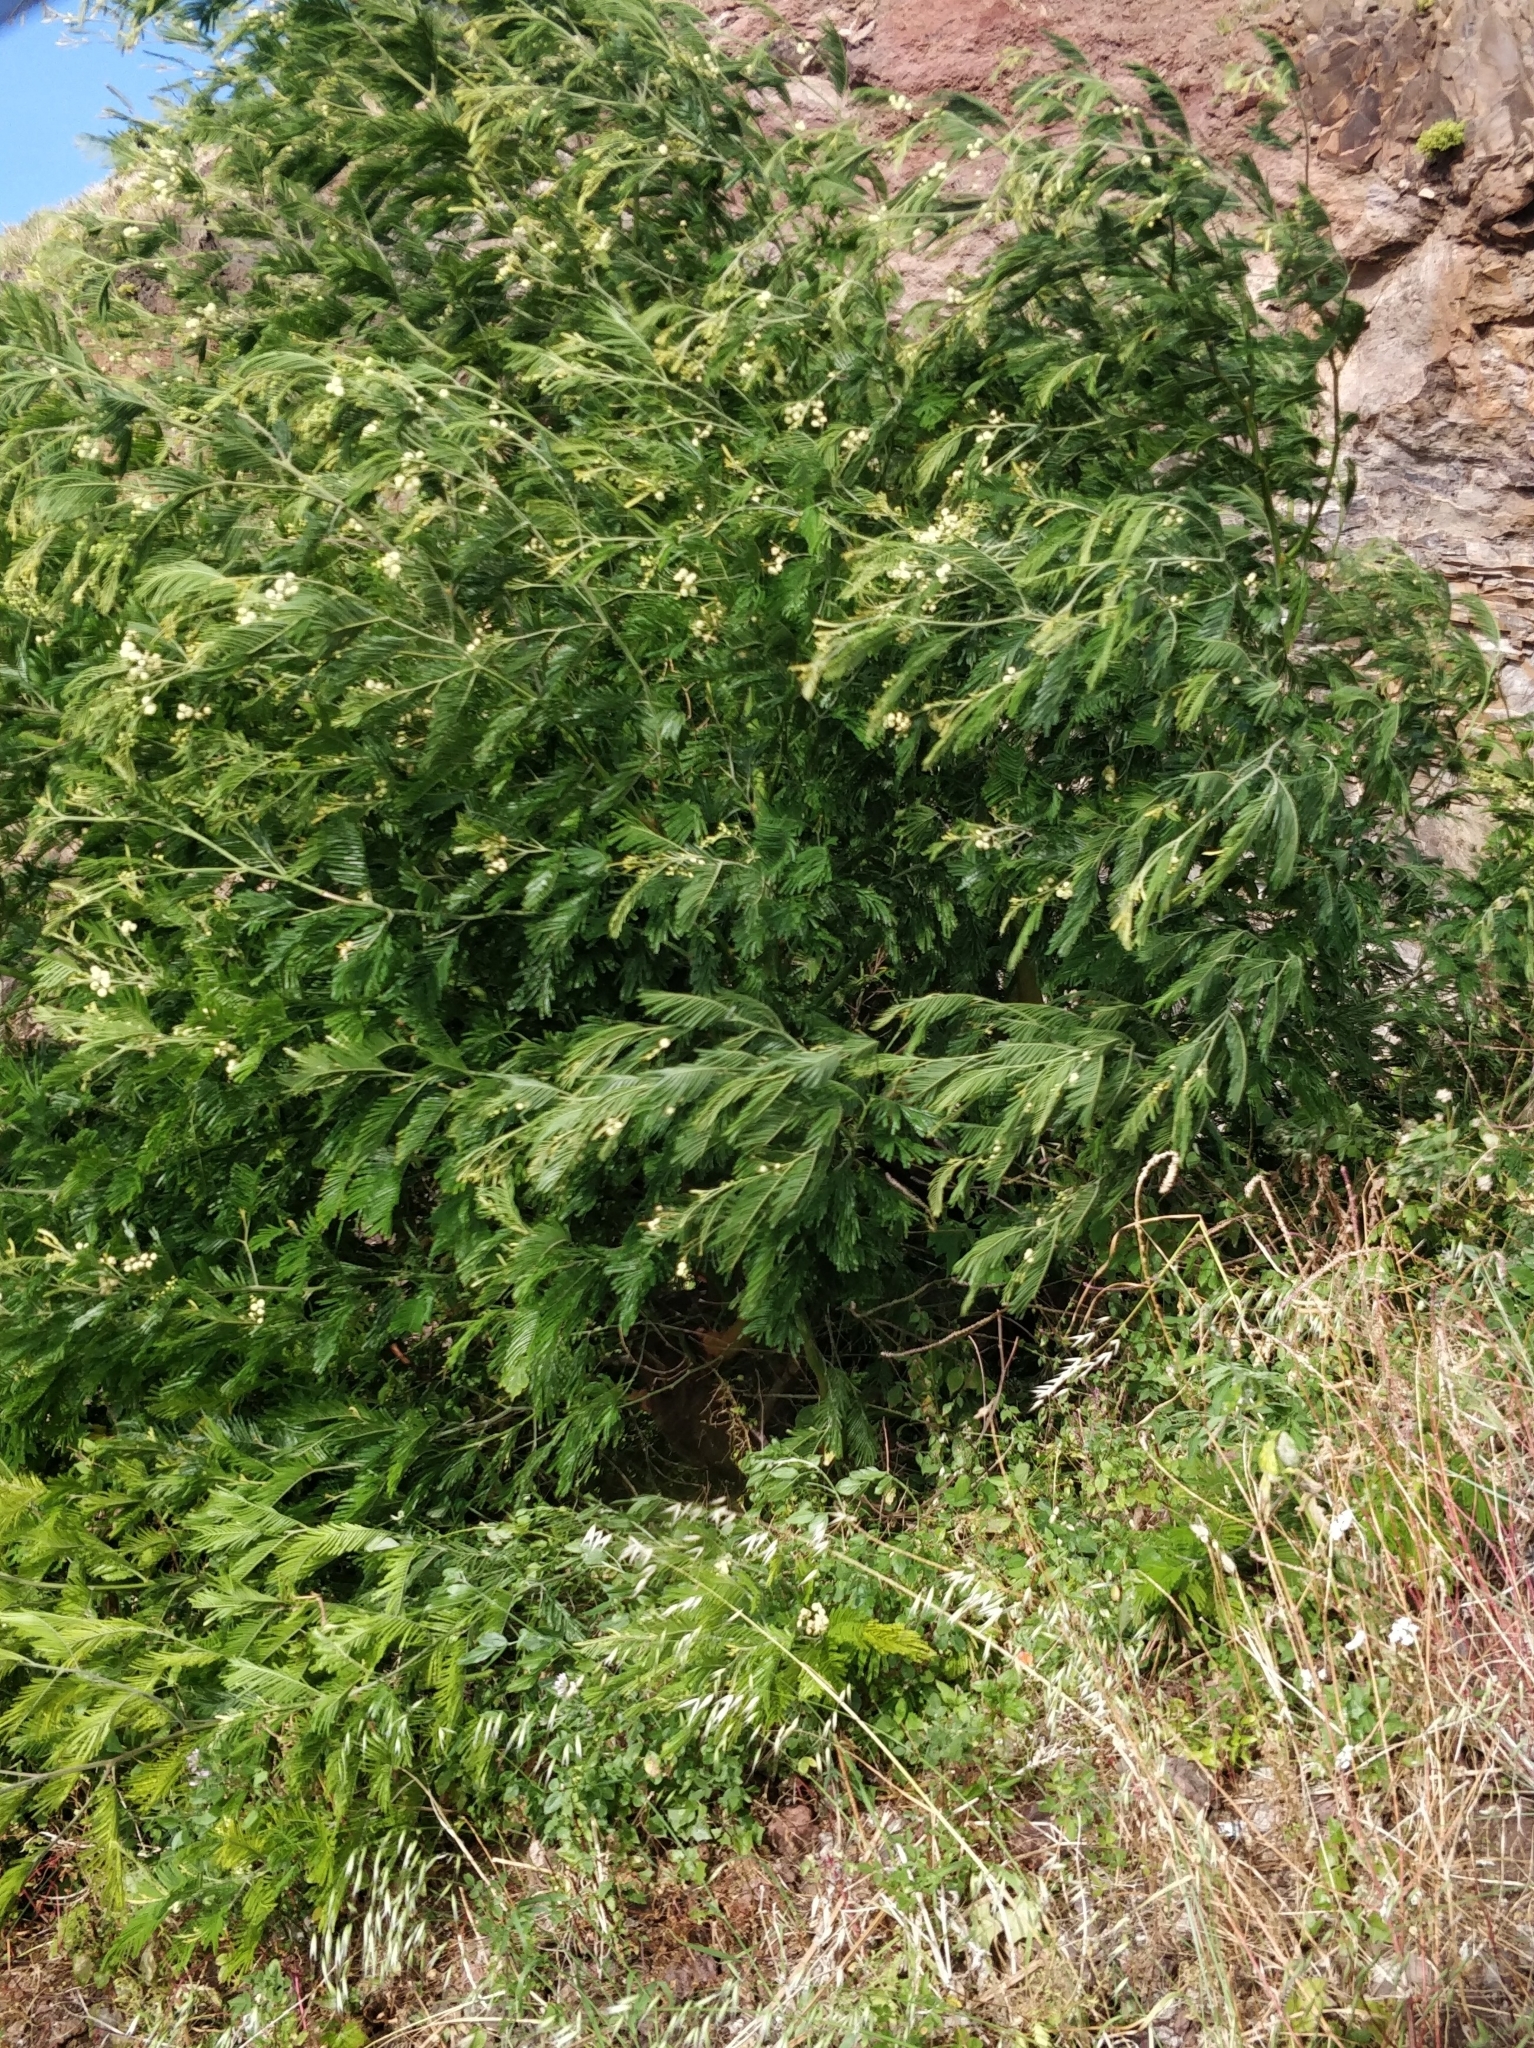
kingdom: Plantae
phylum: Tracheophyta
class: Magnoliopsida
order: Fabales
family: Fabaceae
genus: Acacia
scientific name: Acacia mearnsii
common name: Black wattle
